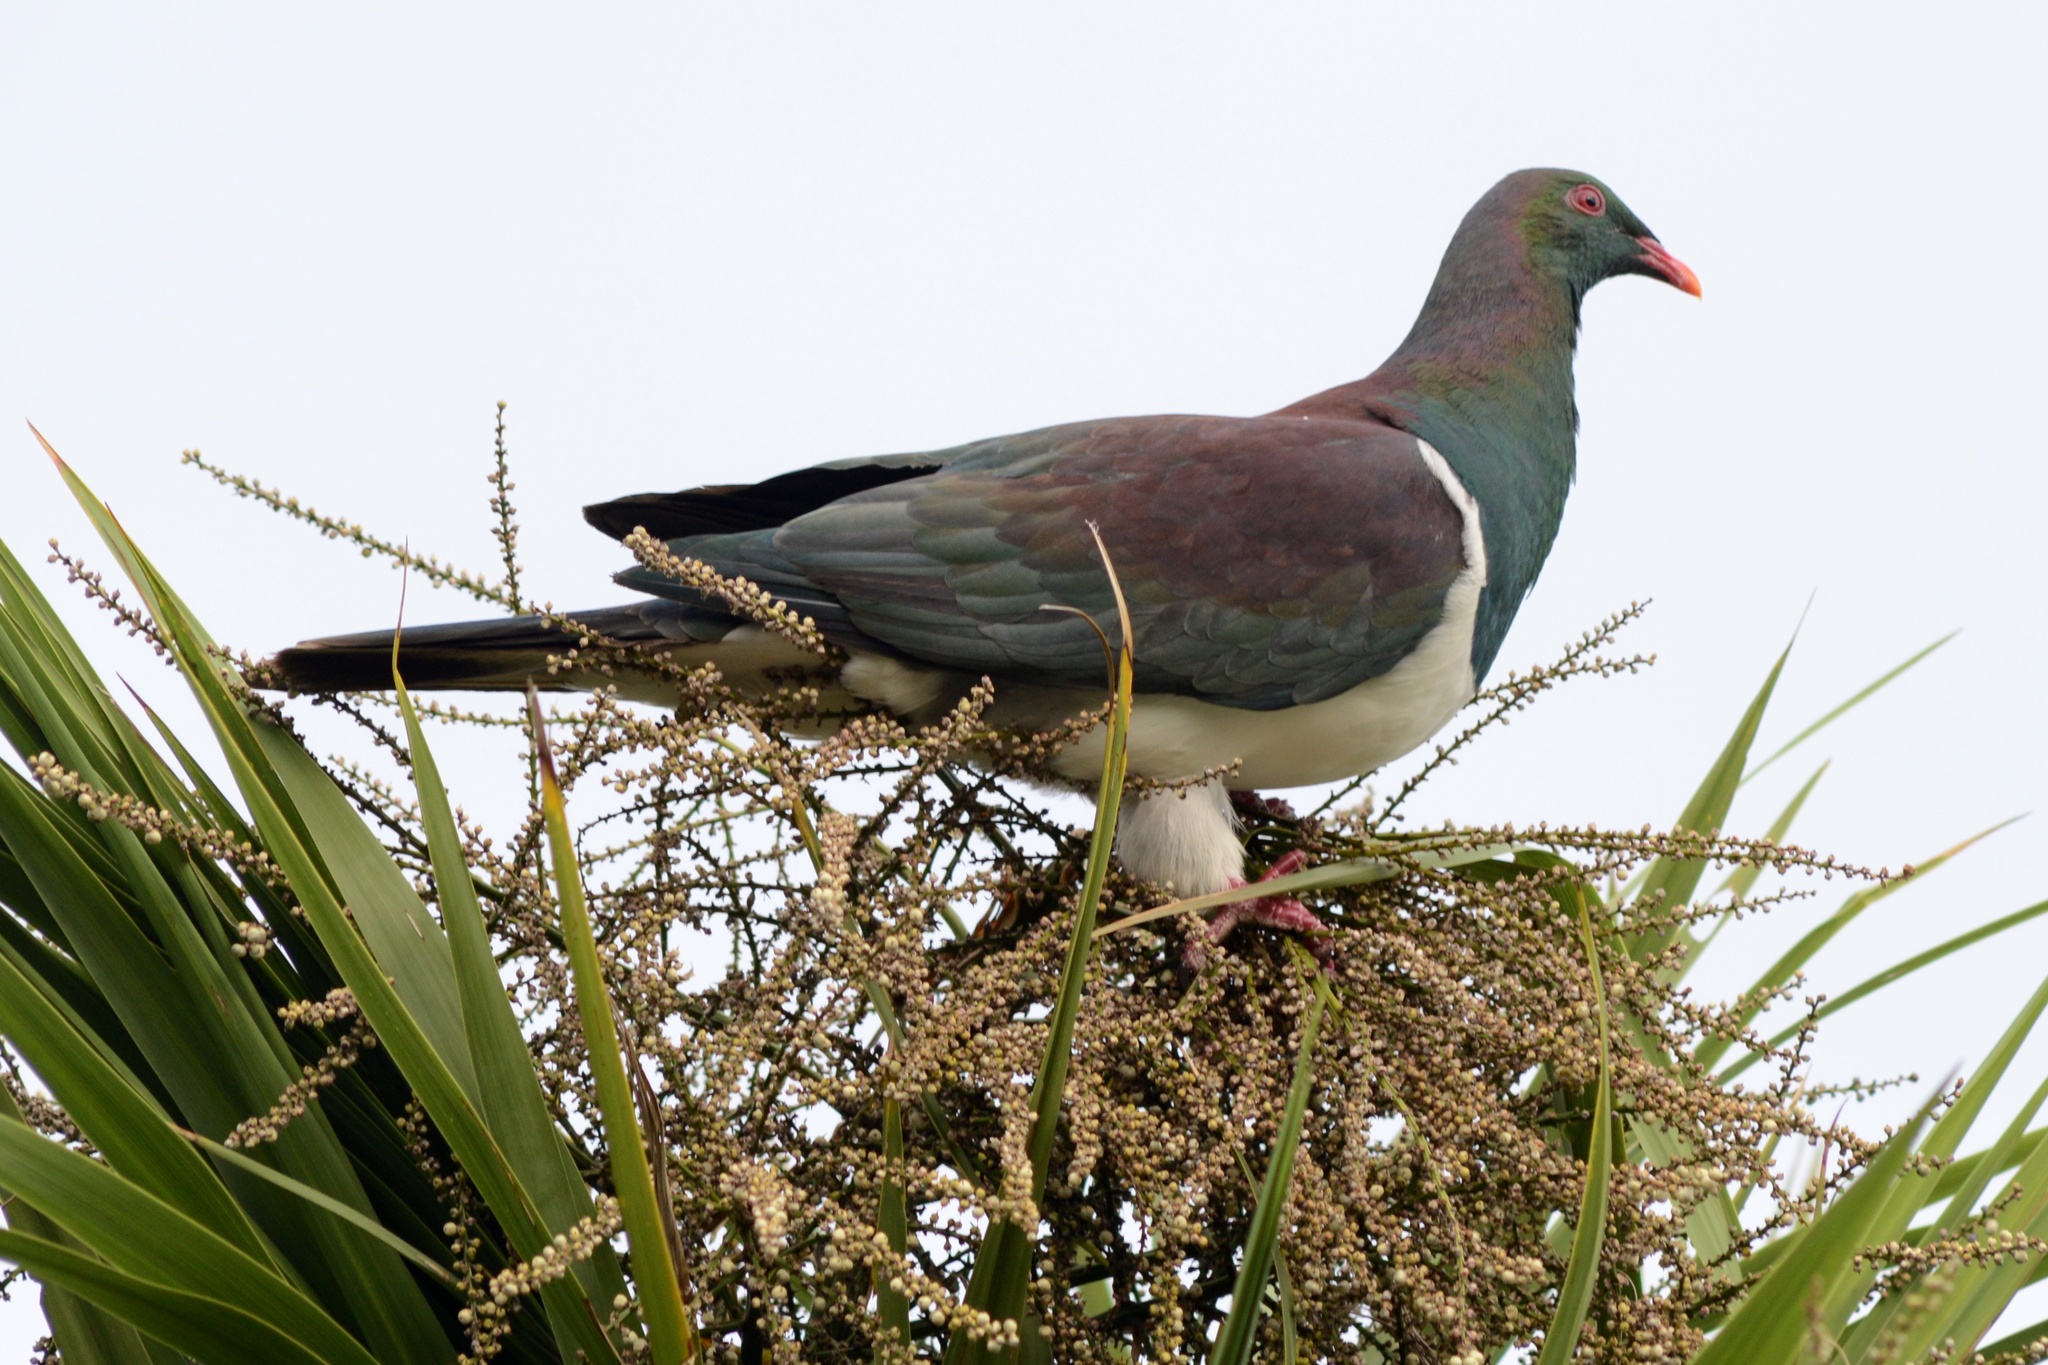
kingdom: Animalia
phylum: Chordata
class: Aves
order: Columbiformes
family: Columbidae
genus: Hemiphaga
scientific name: Hemiphaga novaeseelandiae
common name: New zealand pigeon
